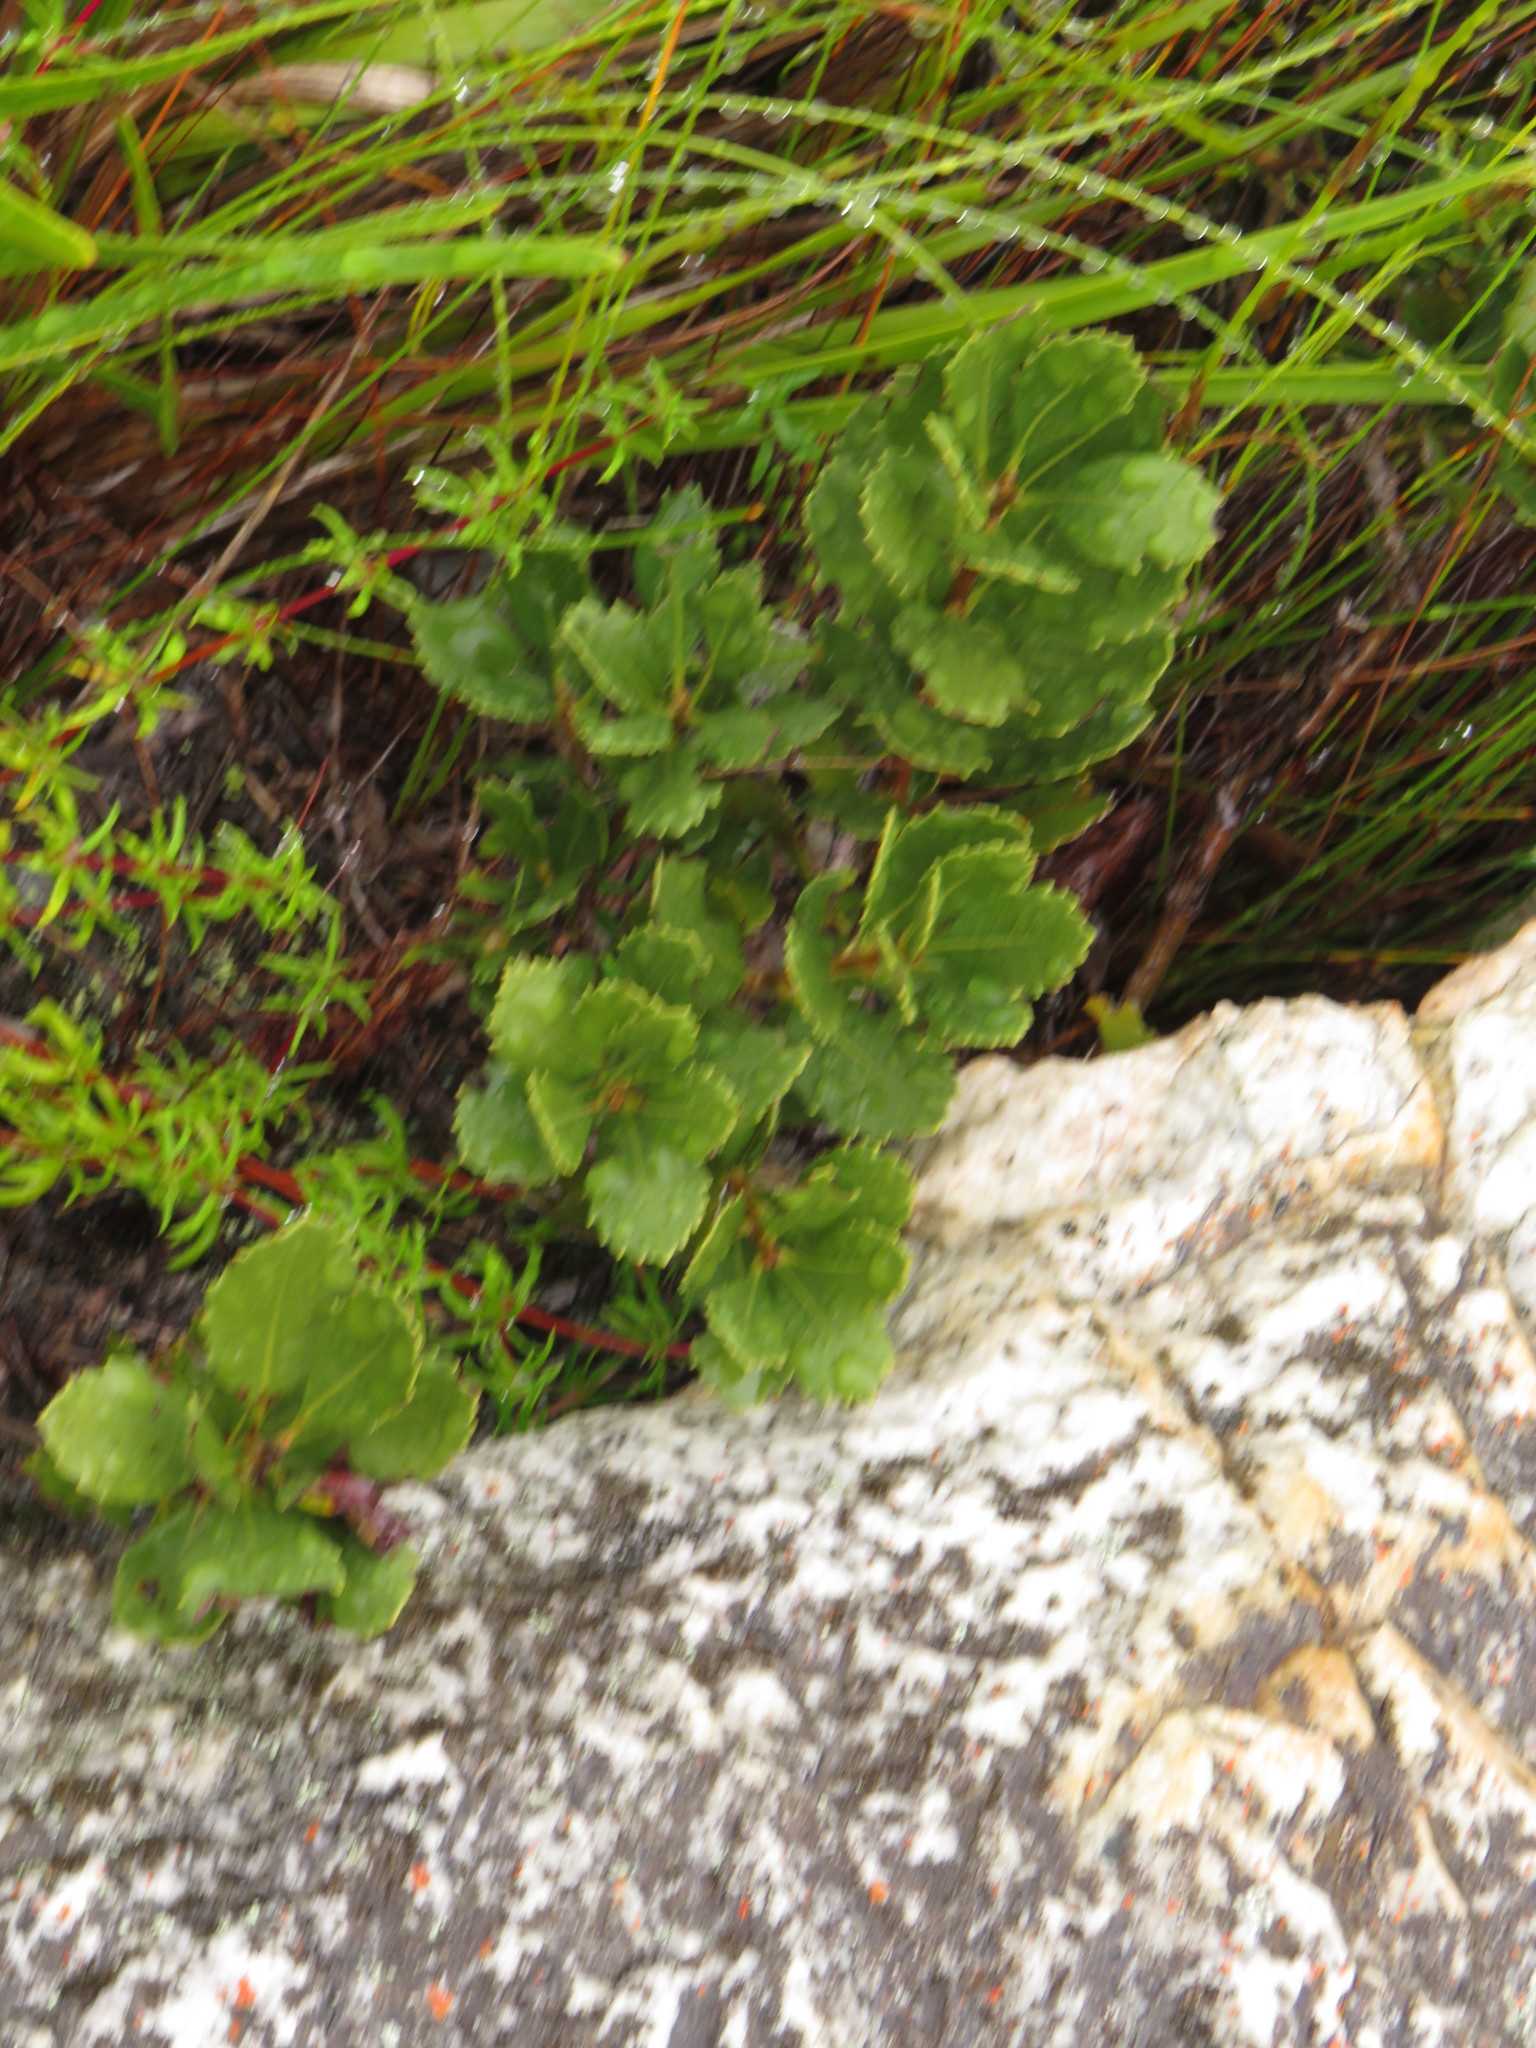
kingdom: Plantae
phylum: Tracheophyta
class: Magnoliopsida
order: Fagales
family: Myricaceae
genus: Morella
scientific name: Morella diversifolia
